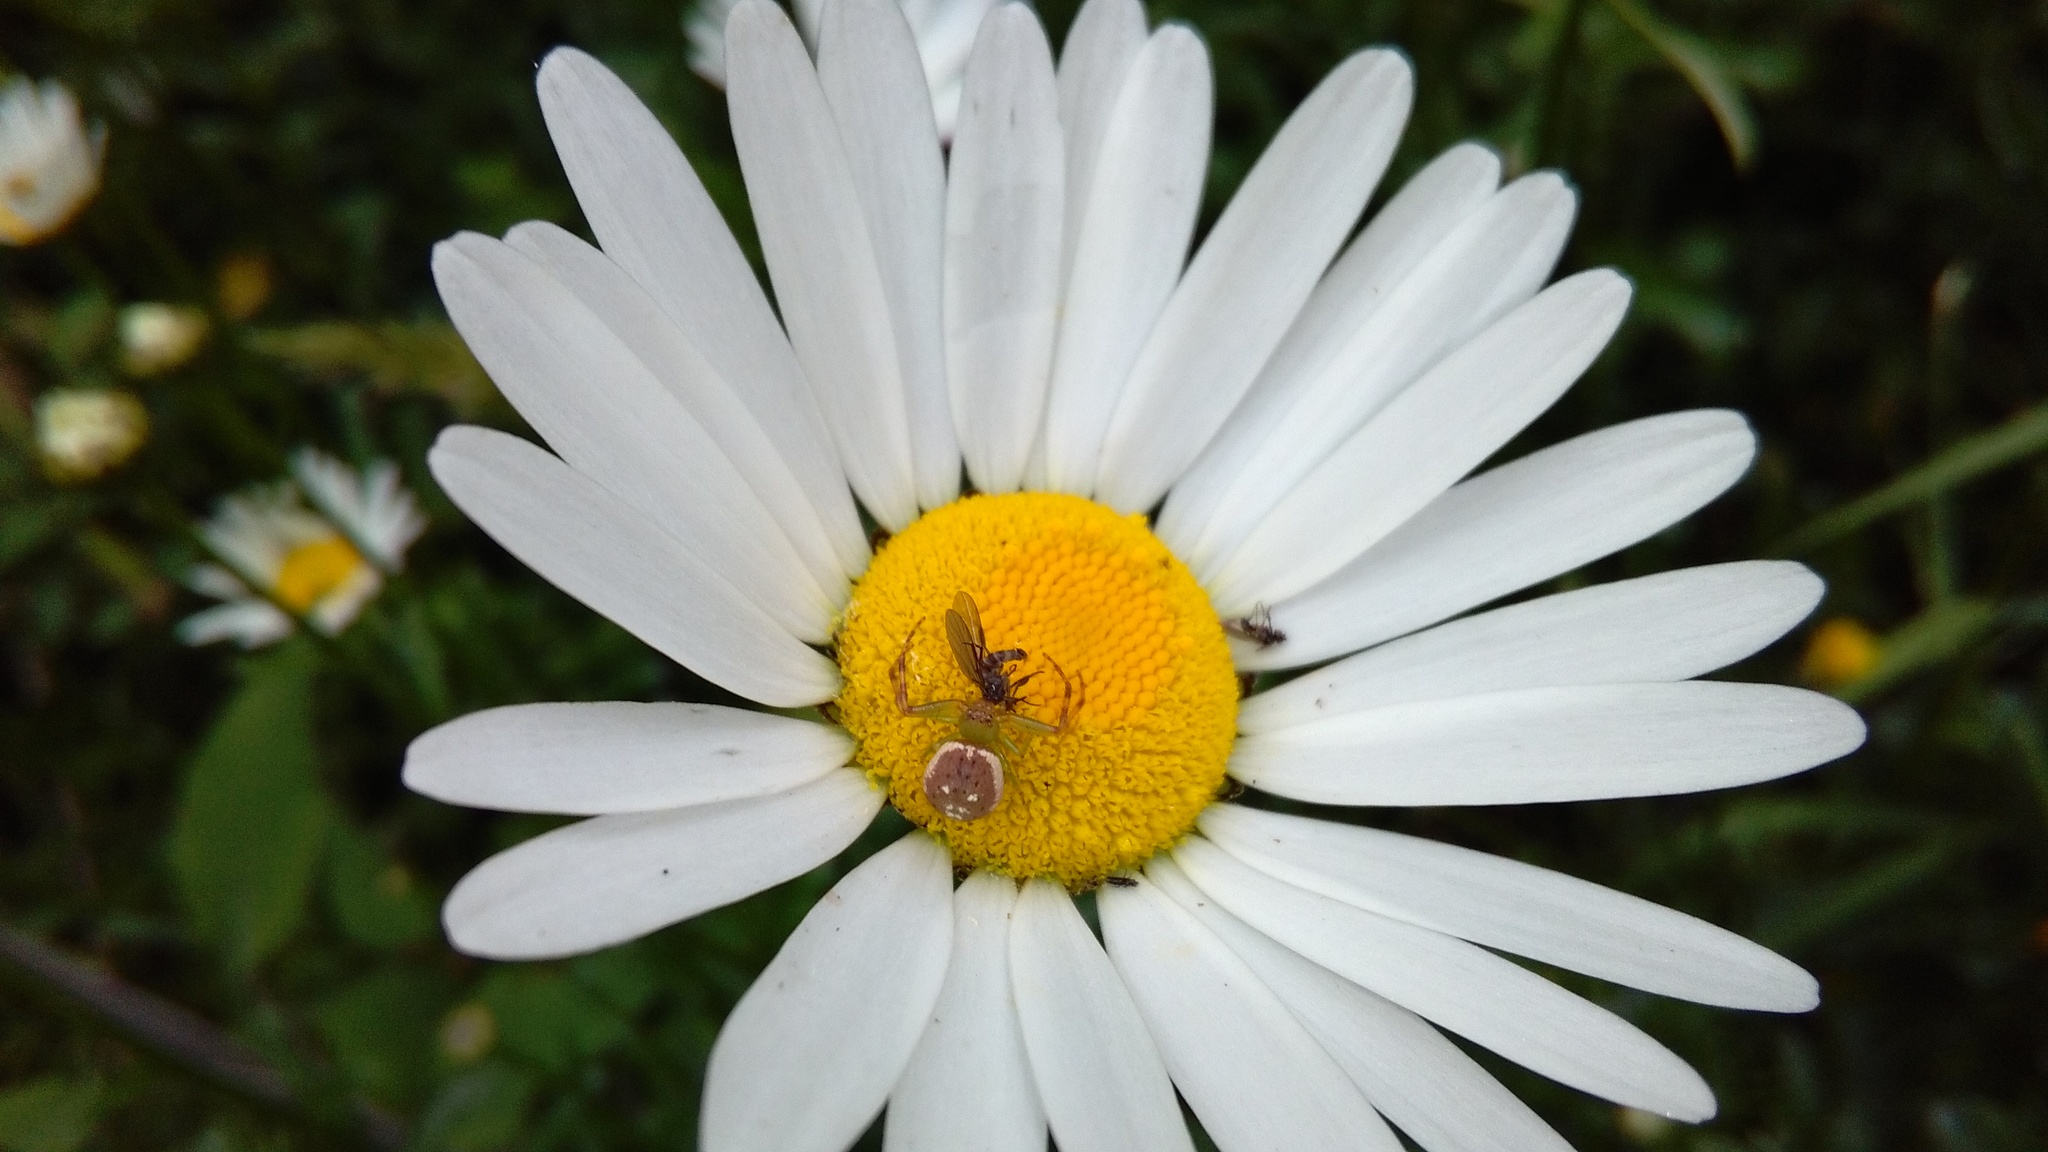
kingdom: Animalia
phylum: Arthropoda
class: Arachnida
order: Araneae
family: Thomisidae
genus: Diaea
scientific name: Diaea ambara
